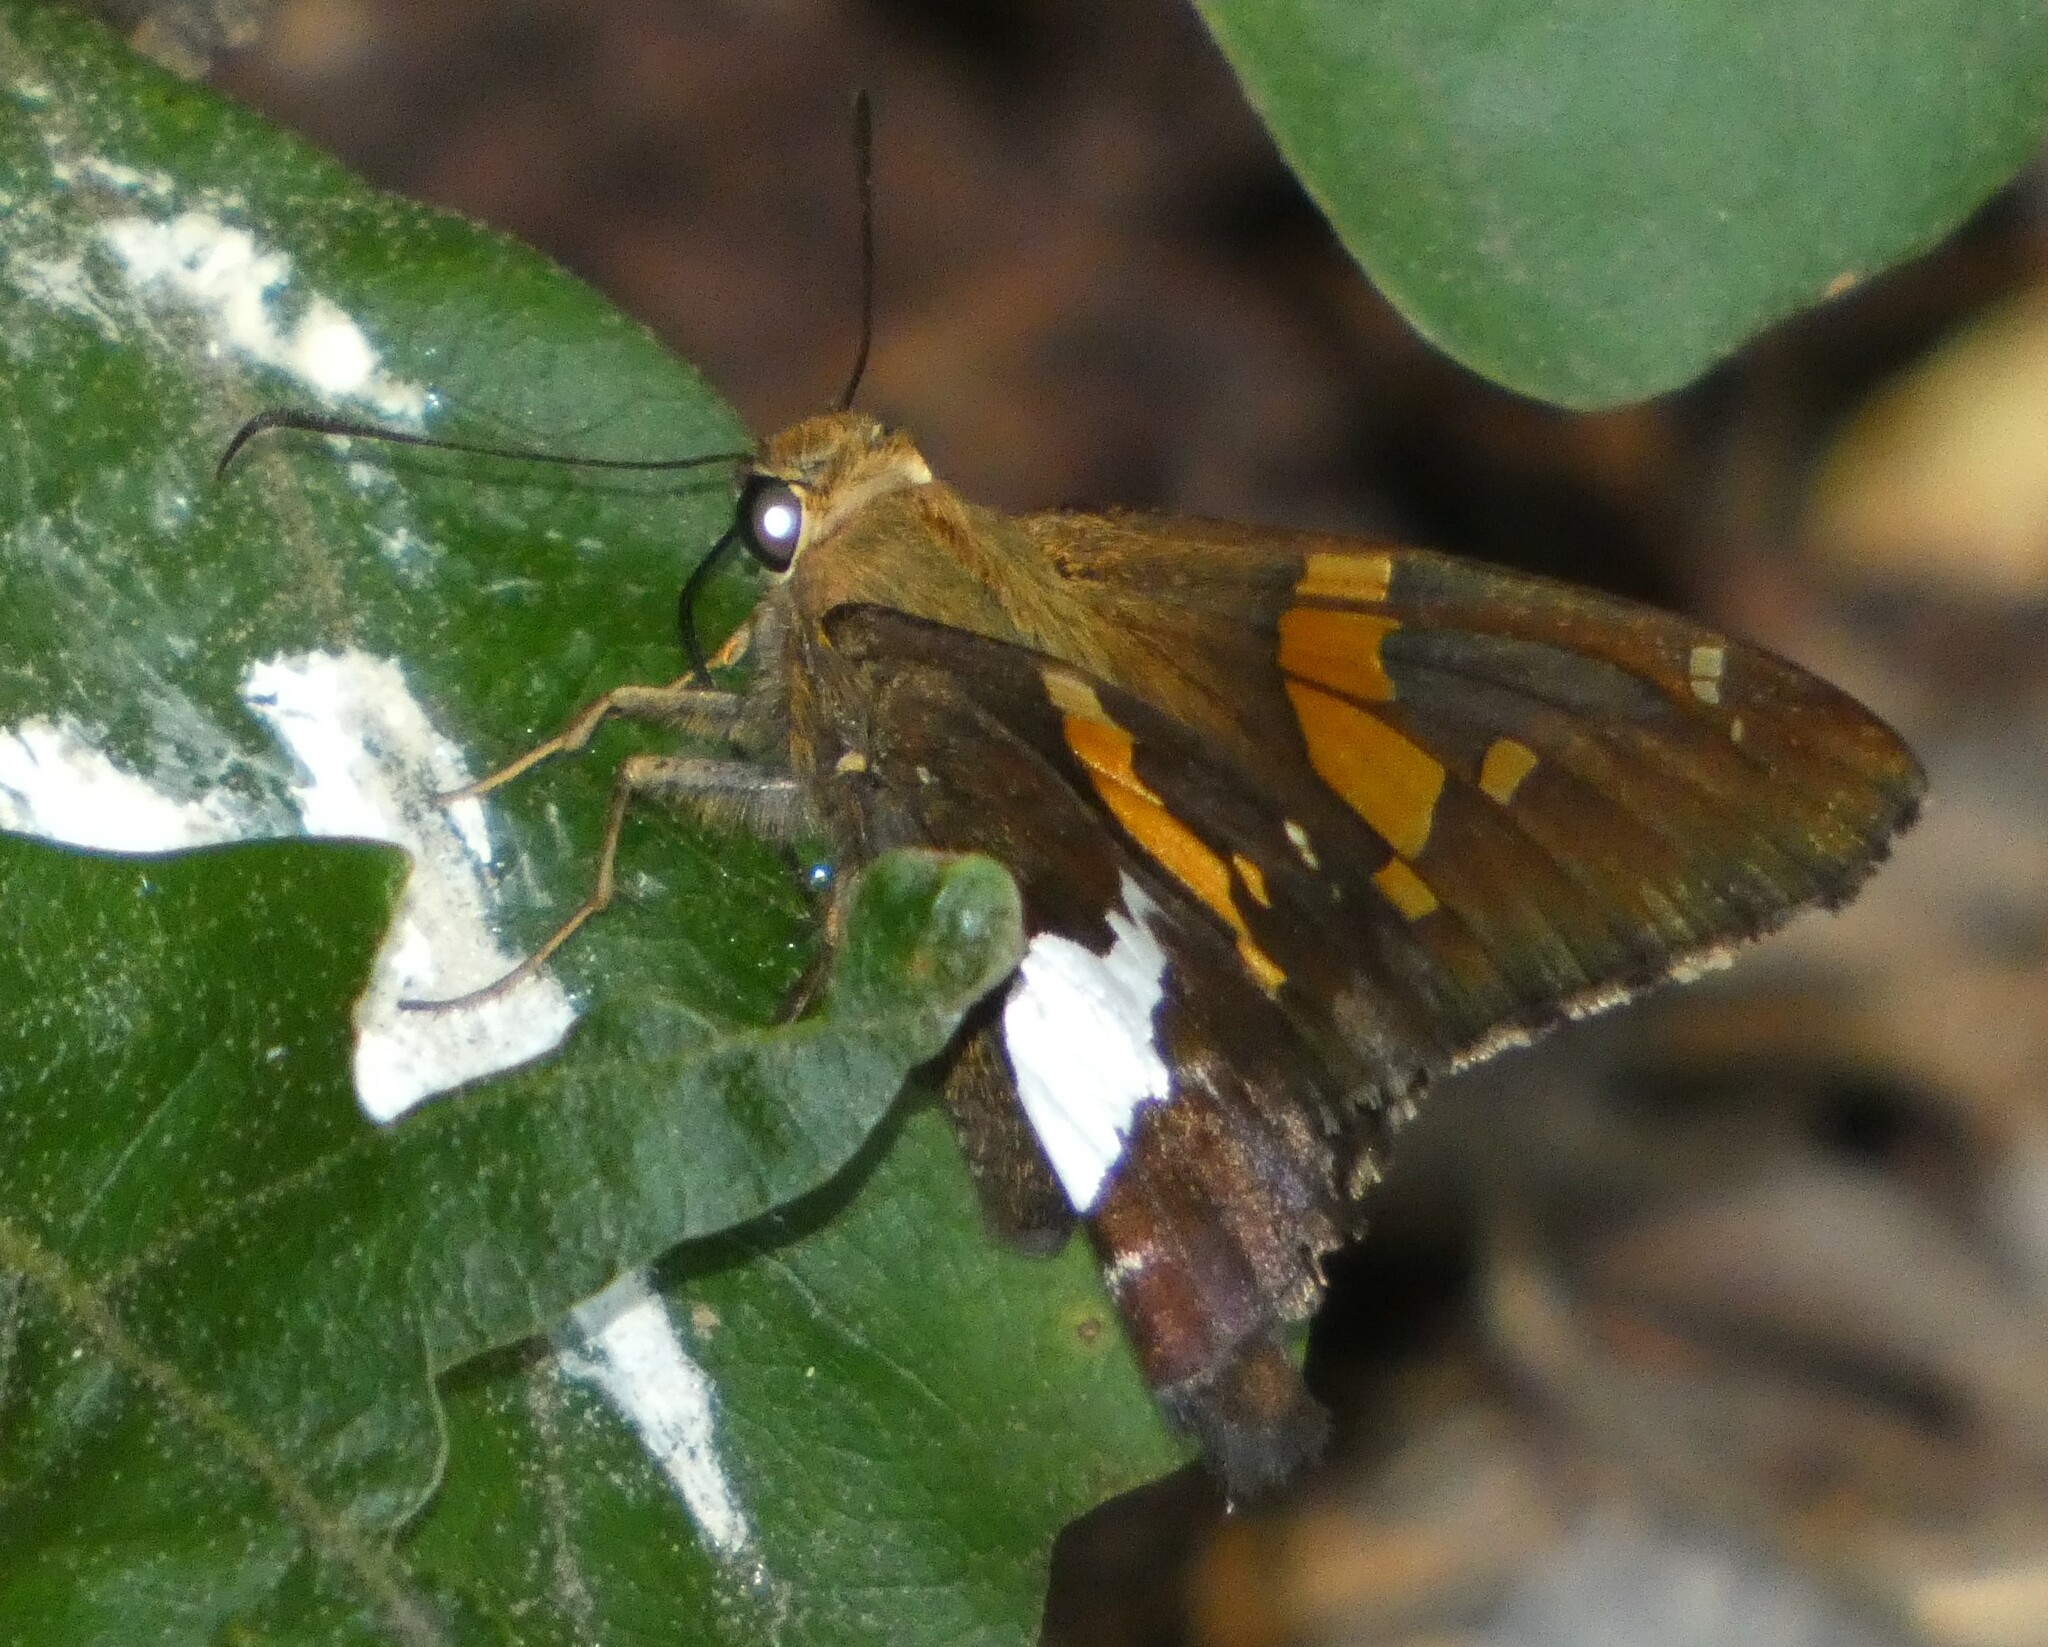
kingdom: Animalia
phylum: Arthropoda
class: Insecta
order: Lepidoptera
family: Hesperiidae
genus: Epargyreus
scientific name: Epargyreus clarus
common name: Silver-spotted skipper
